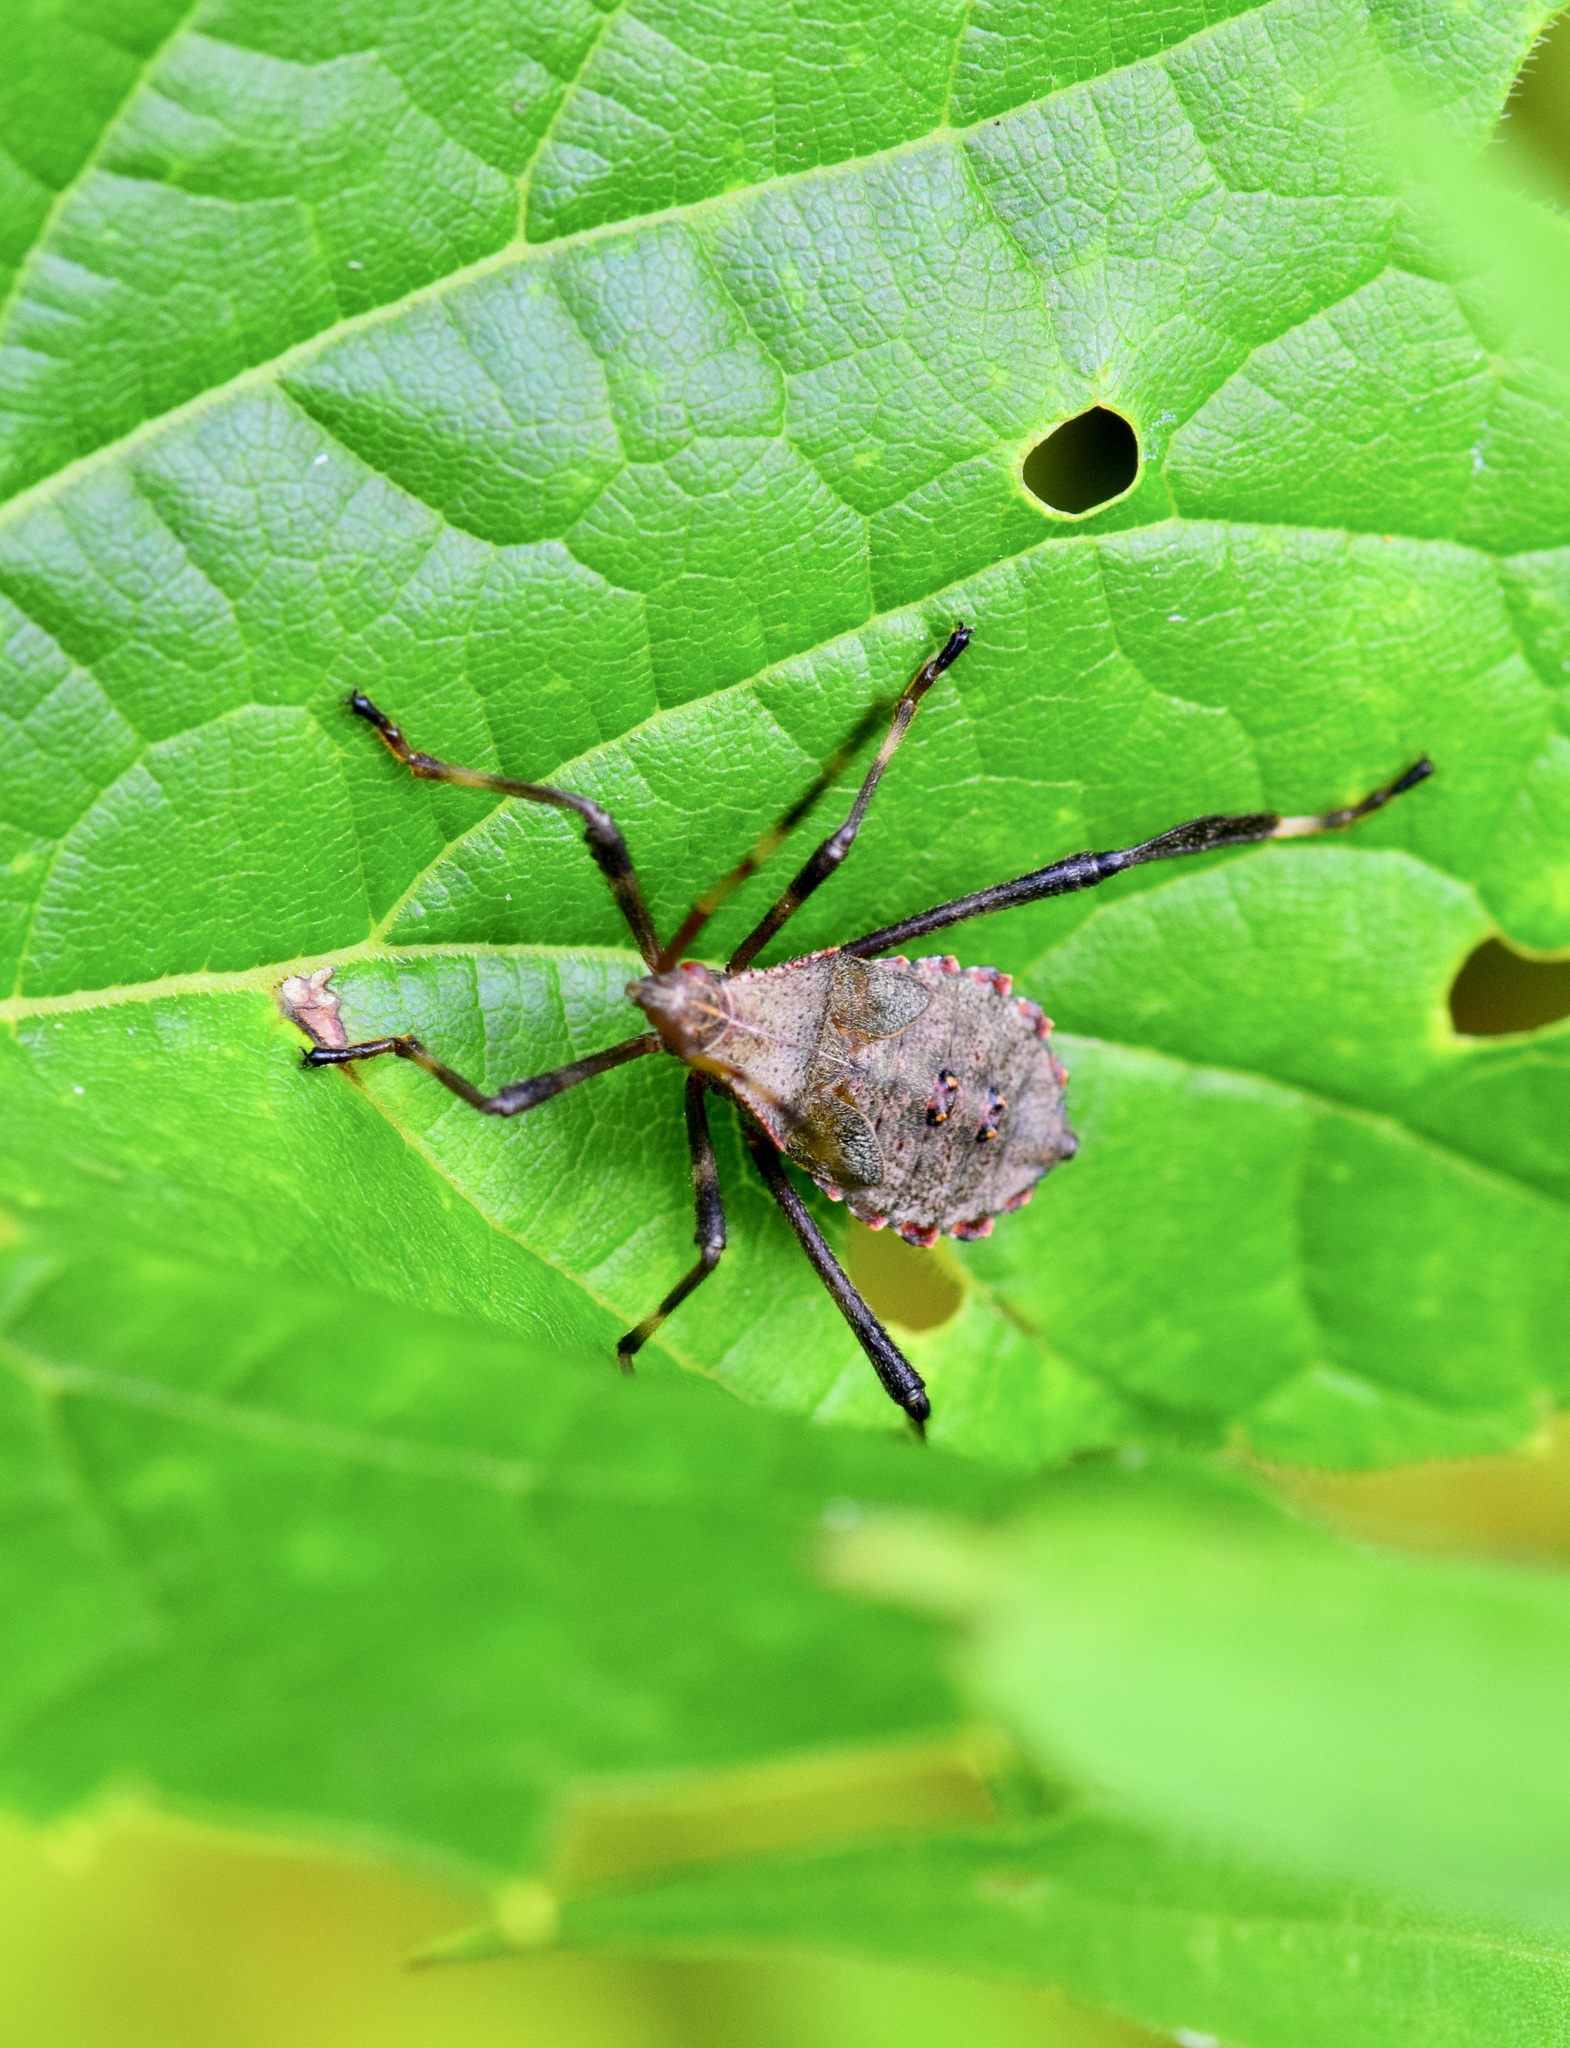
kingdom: Animalia
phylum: Arthropoda
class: Insecta
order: Hemiptera
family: Coreidae
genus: Acanthocephala
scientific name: Acanthocephala terminalis
